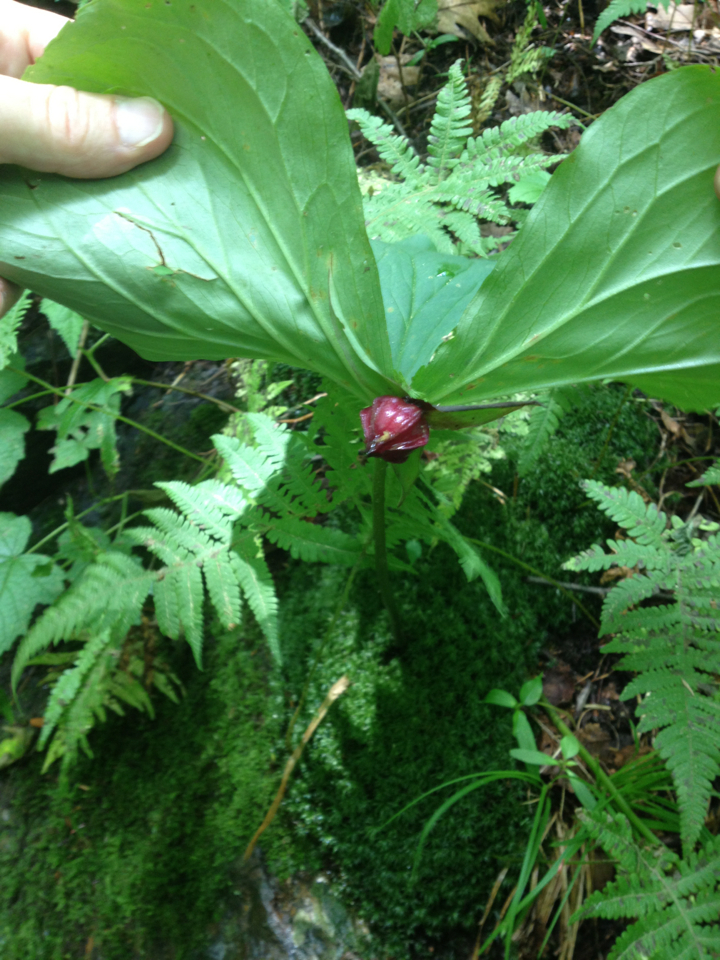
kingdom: Plantae
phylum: Tracheophyta
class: Liliopsida
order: Liliales
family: Melanthiaceae
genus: Trillium
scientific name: Trillium erectum
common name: Purple trillium
